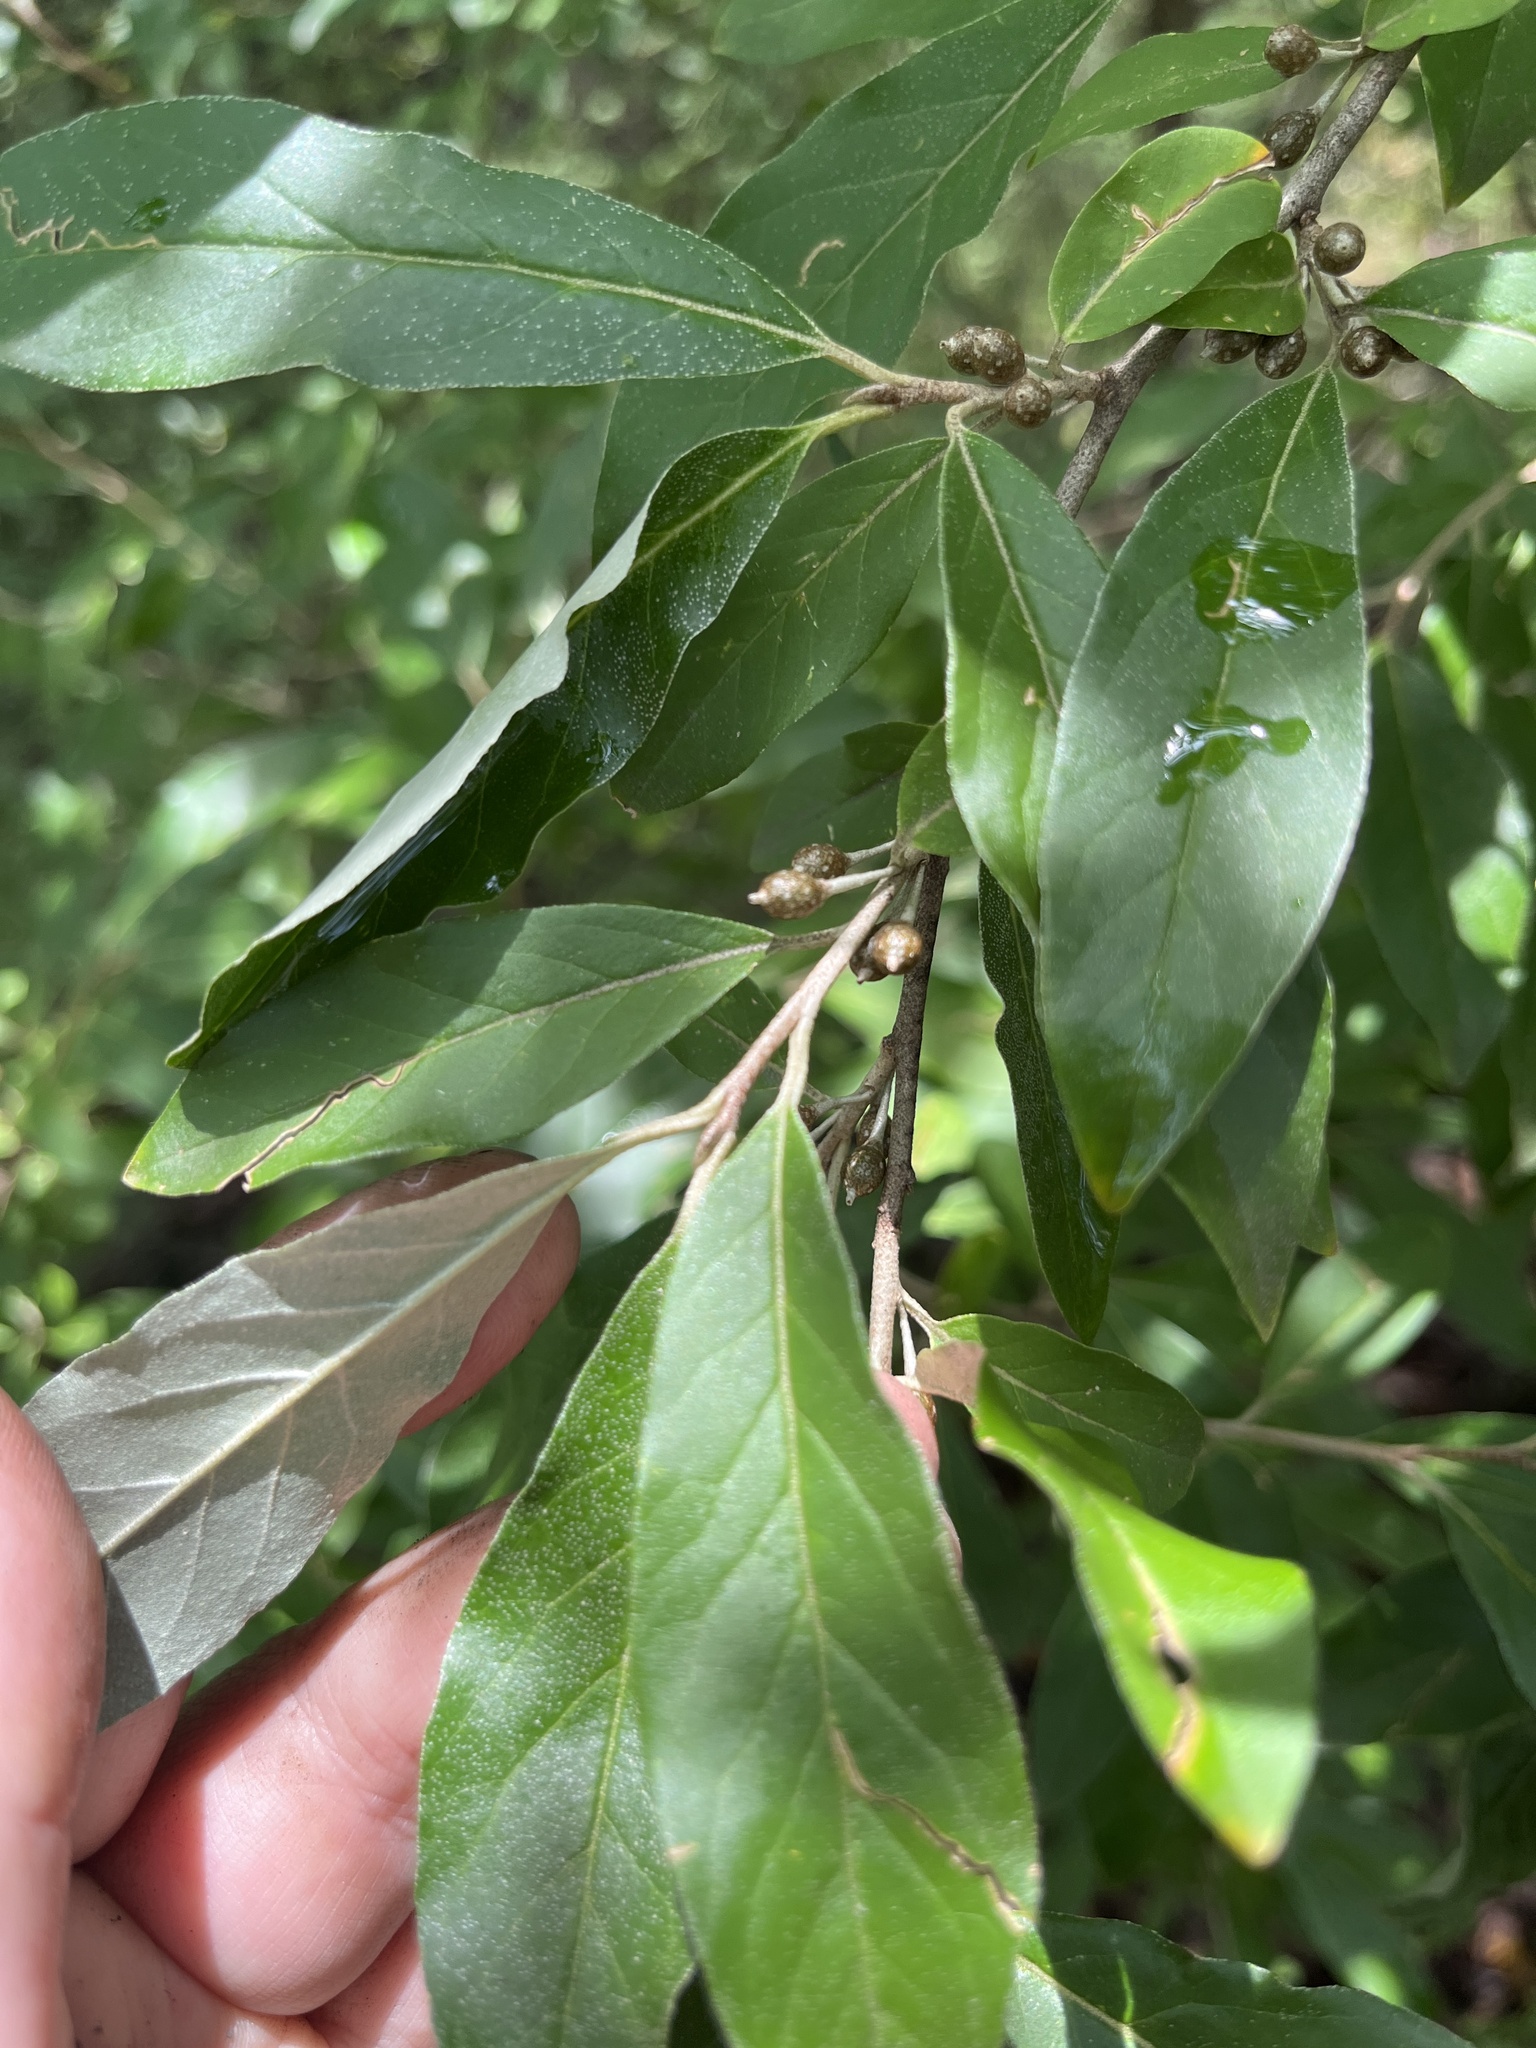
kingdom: Plantae
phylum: Tracheophyta
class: Magnoliopsida
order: Rosales
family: Elaeagnaceae
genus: Elaeagnus
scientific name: Elaeagnus umbellata
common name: Autumn olive
